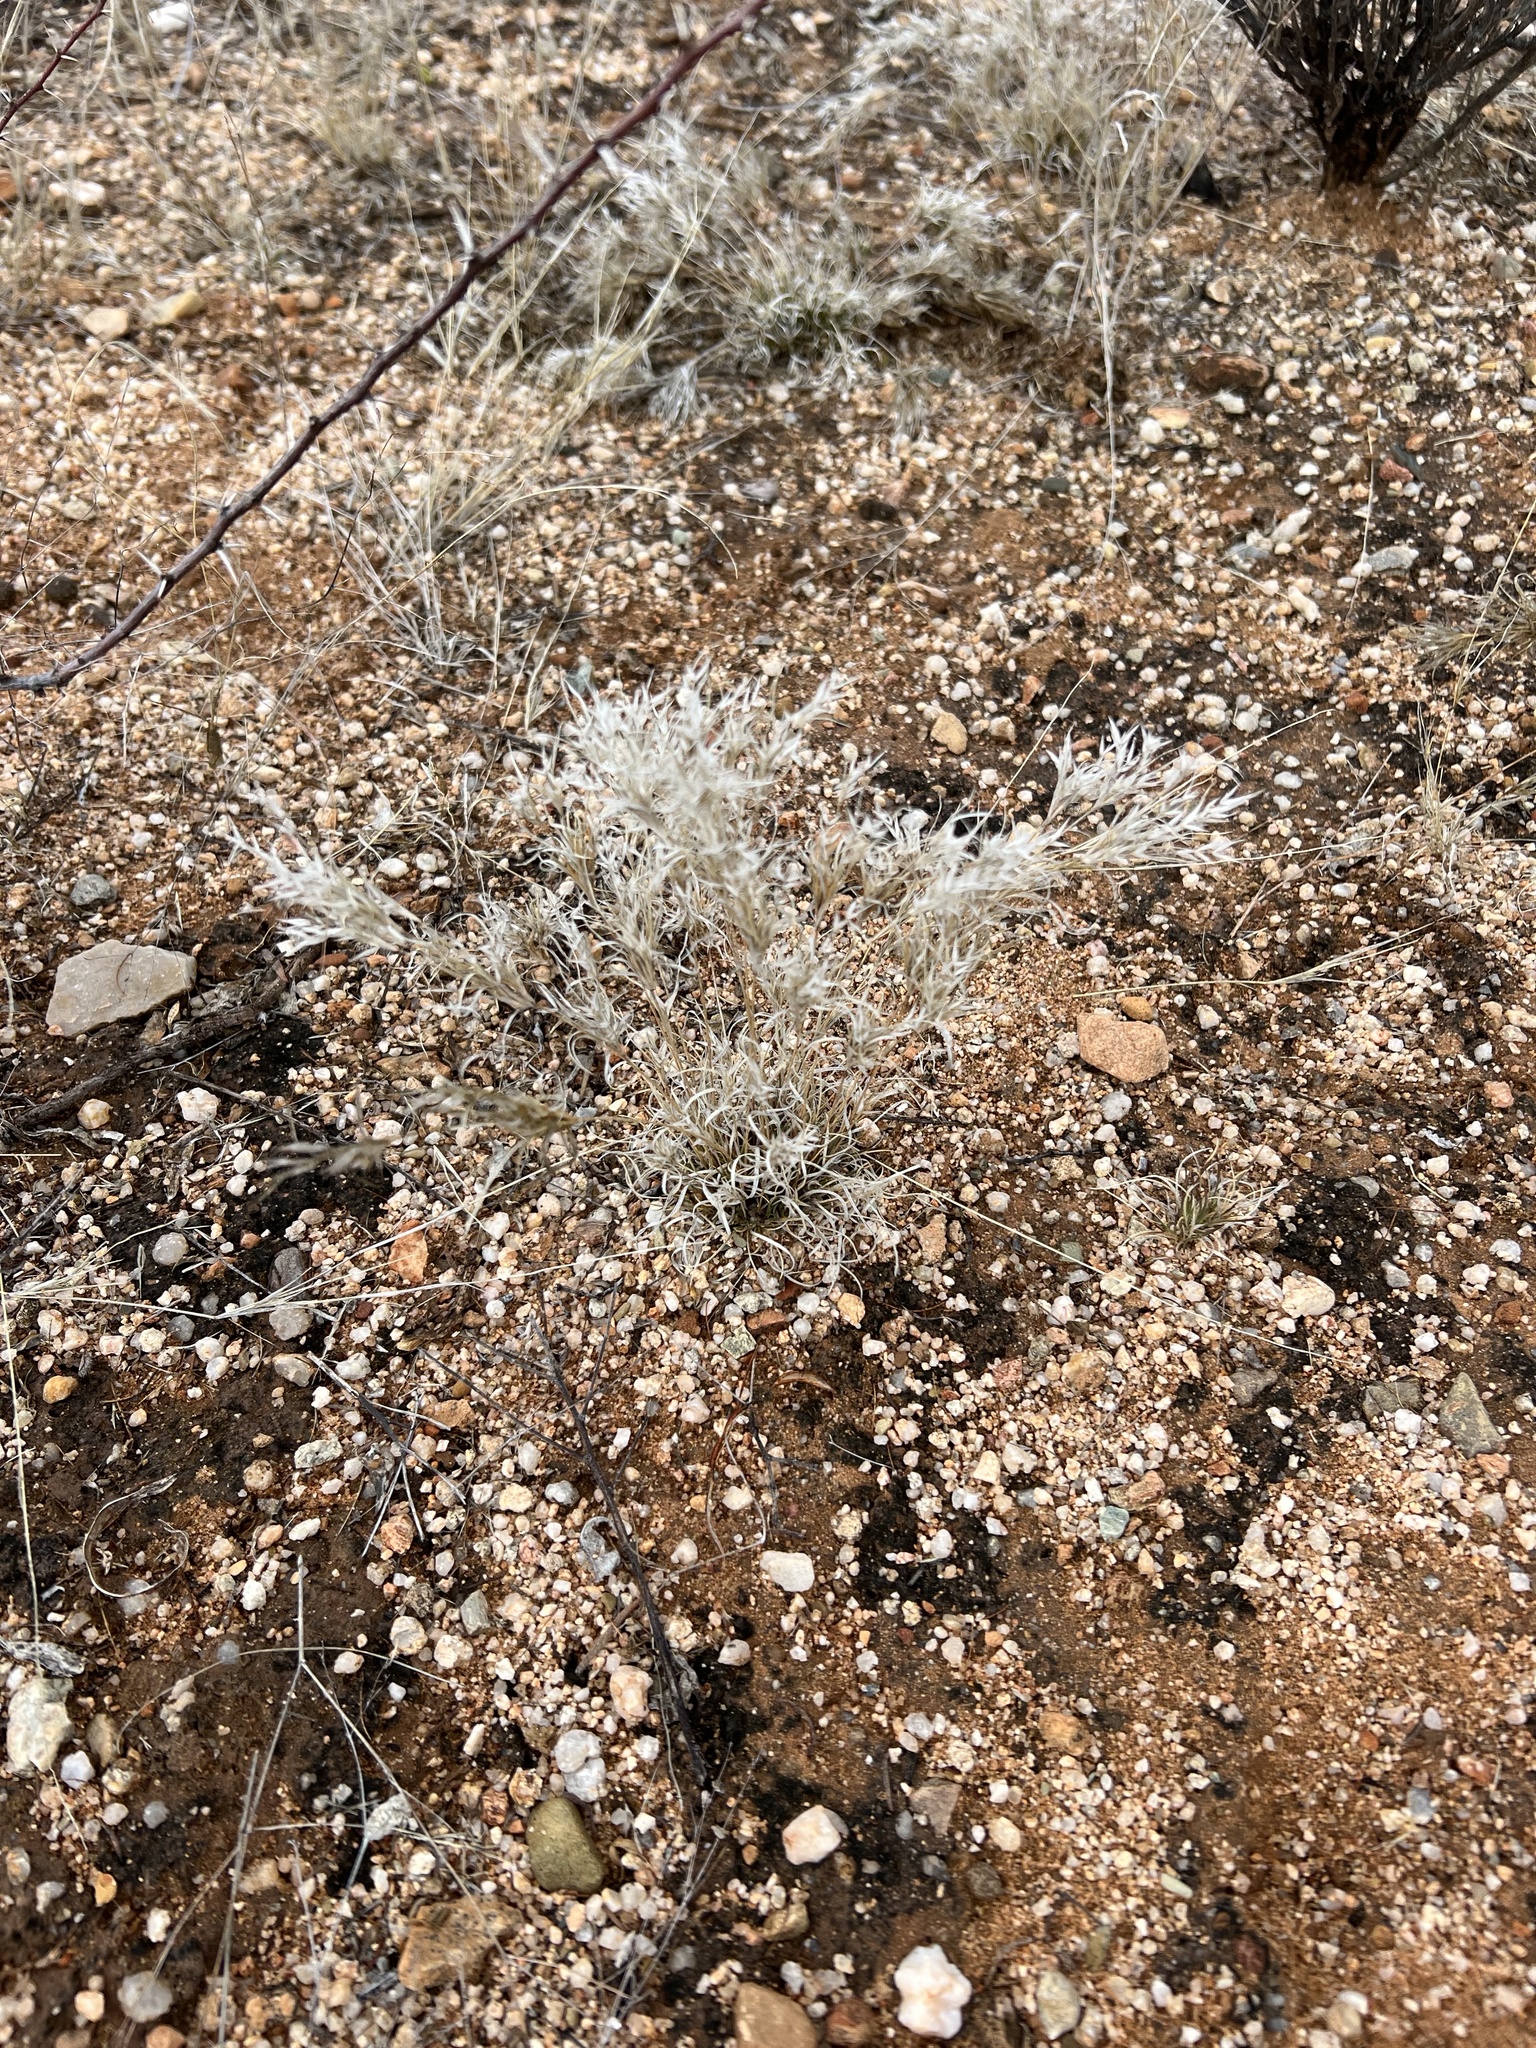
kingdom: Plantae
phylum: Tracheophyta
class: Liliopsida
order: Poales
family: Poaceae
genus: Dasyochloa
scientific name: Dasyochloa pulchella
